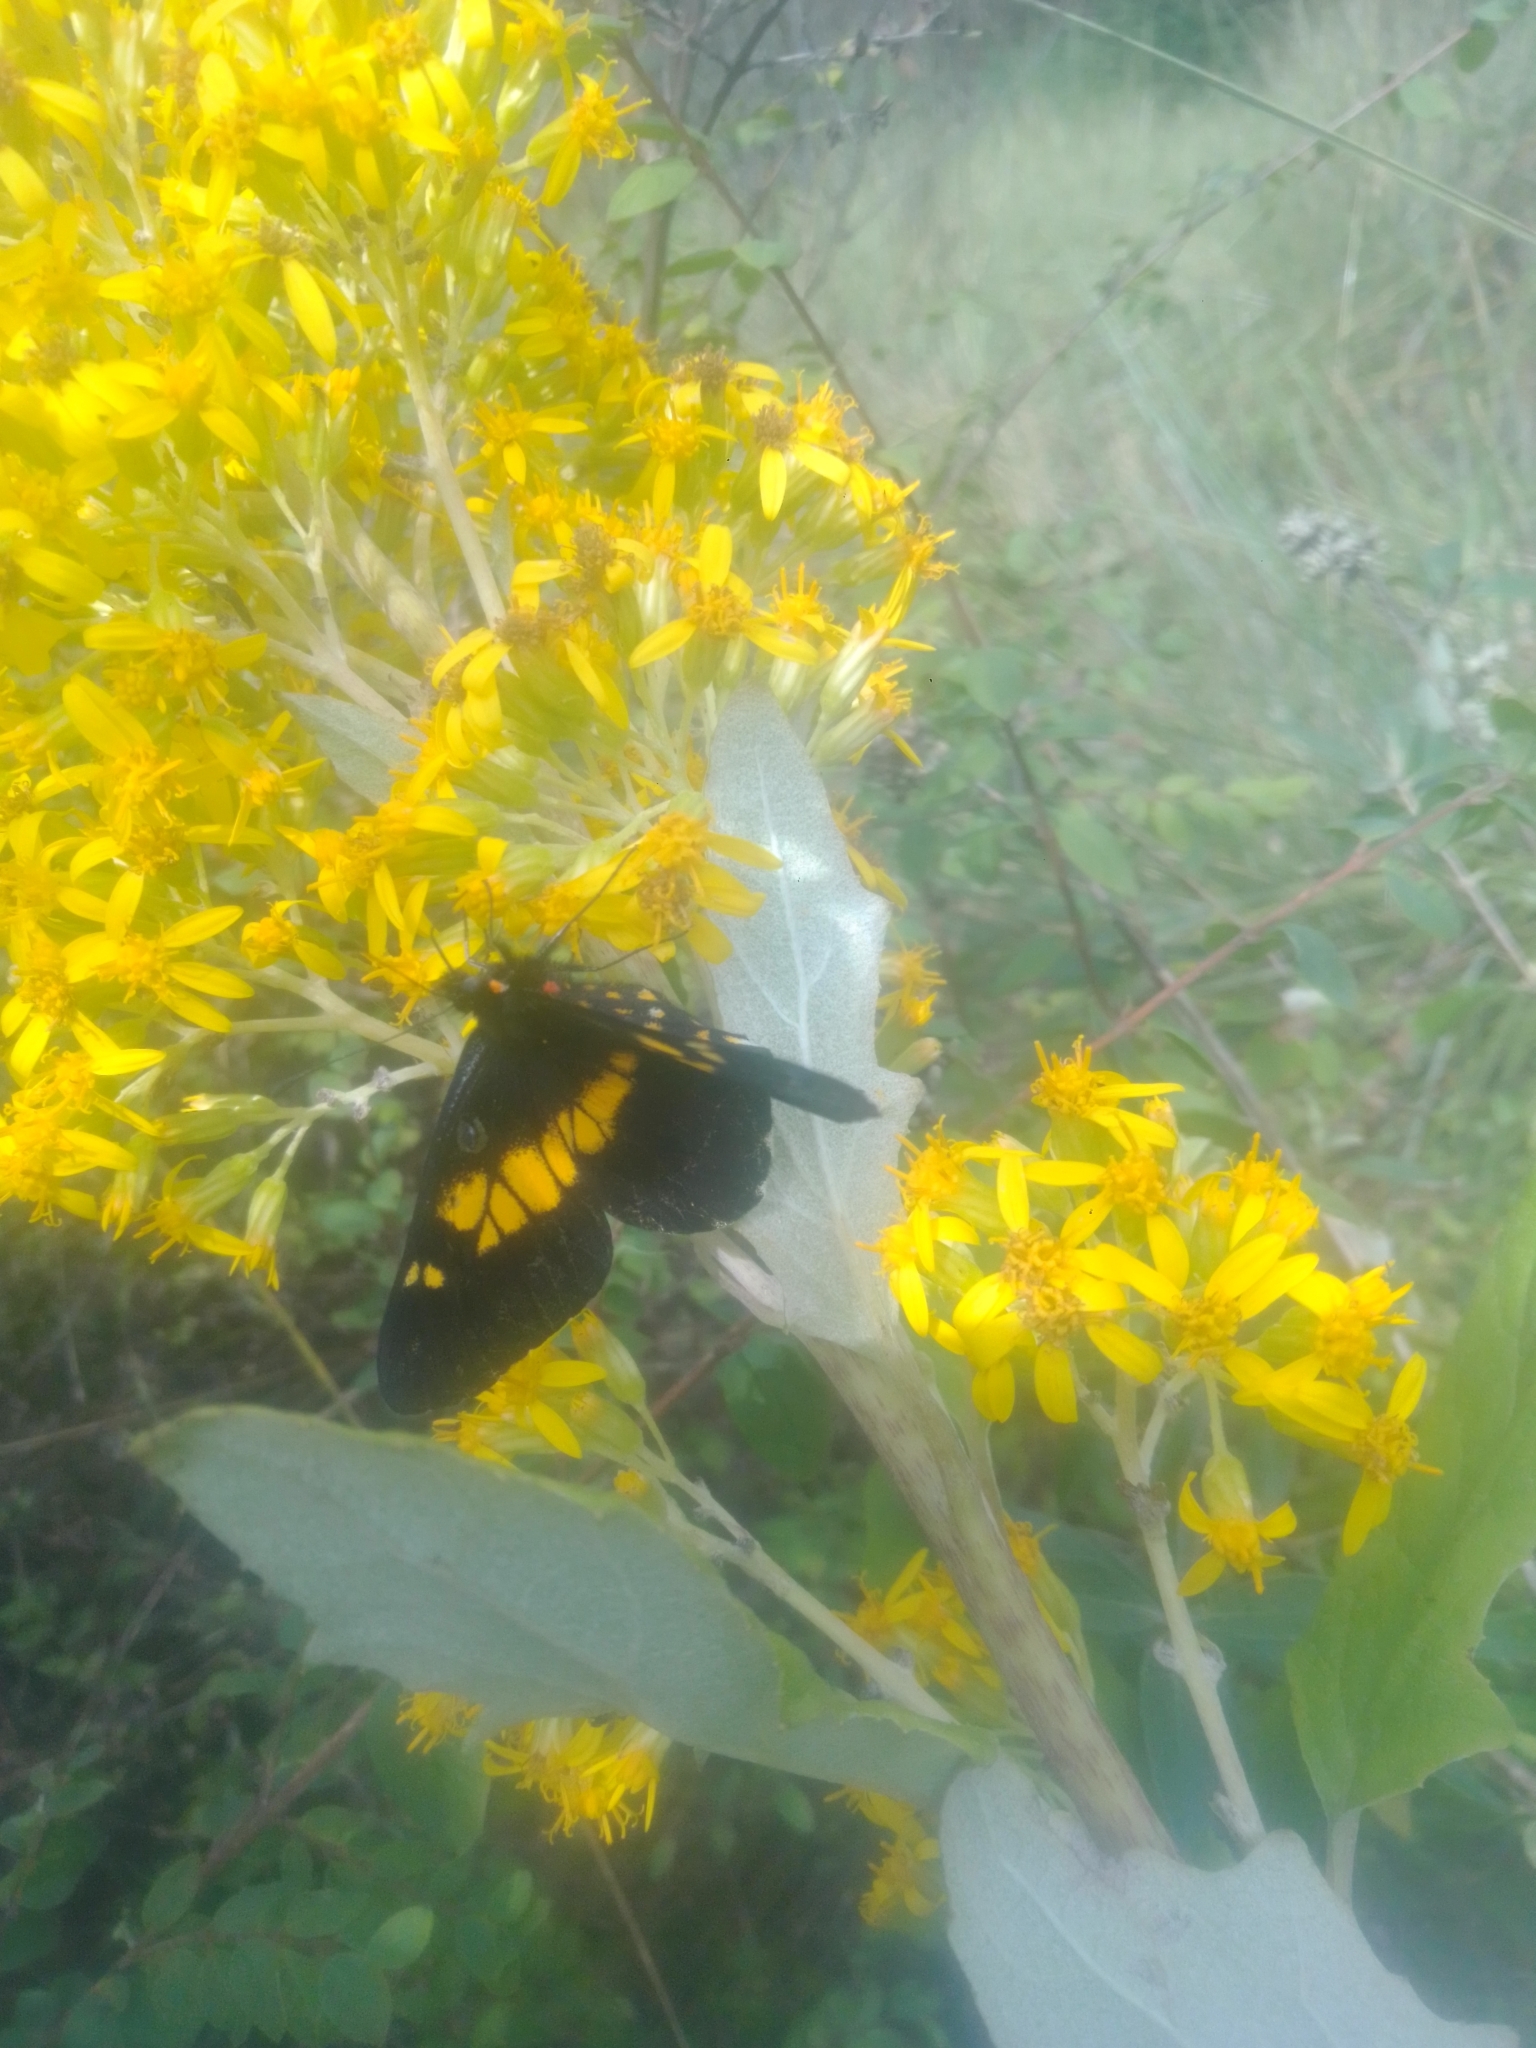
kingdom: Animalia
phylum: Arthropoda
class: Insecta
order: Lepidoptera
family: Pieridae
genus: Archonias
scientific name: Archonias teutila
